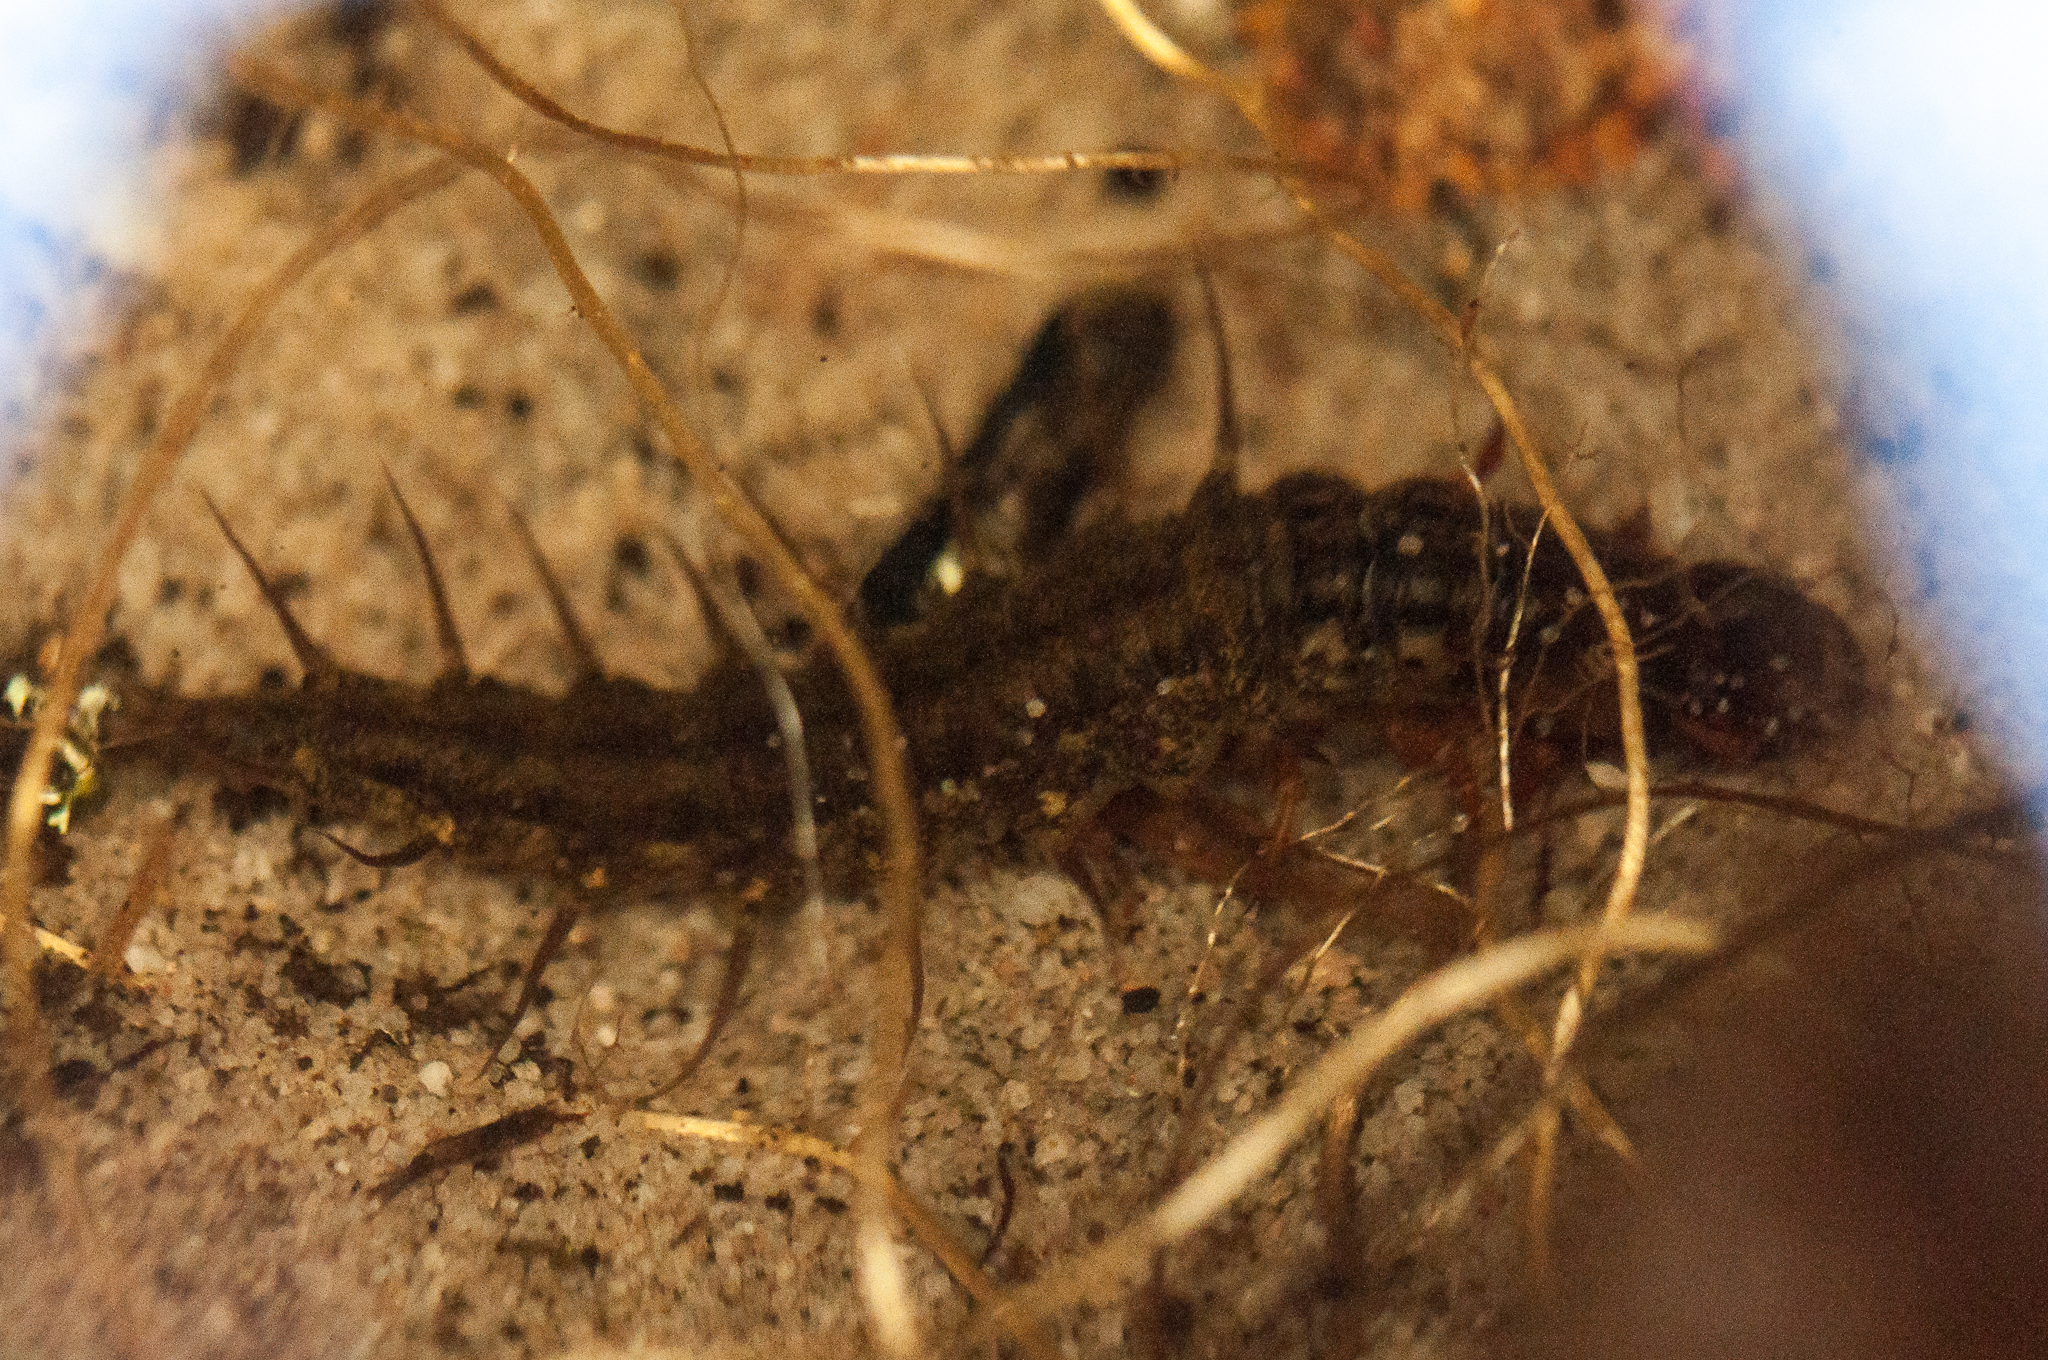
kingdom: Animalia
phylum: Arthropoda
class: Insecta
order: Megaloptera
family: Corydalidae
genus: Taeniochauliodes
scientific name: Taeniochauliodes ochraceopennis
